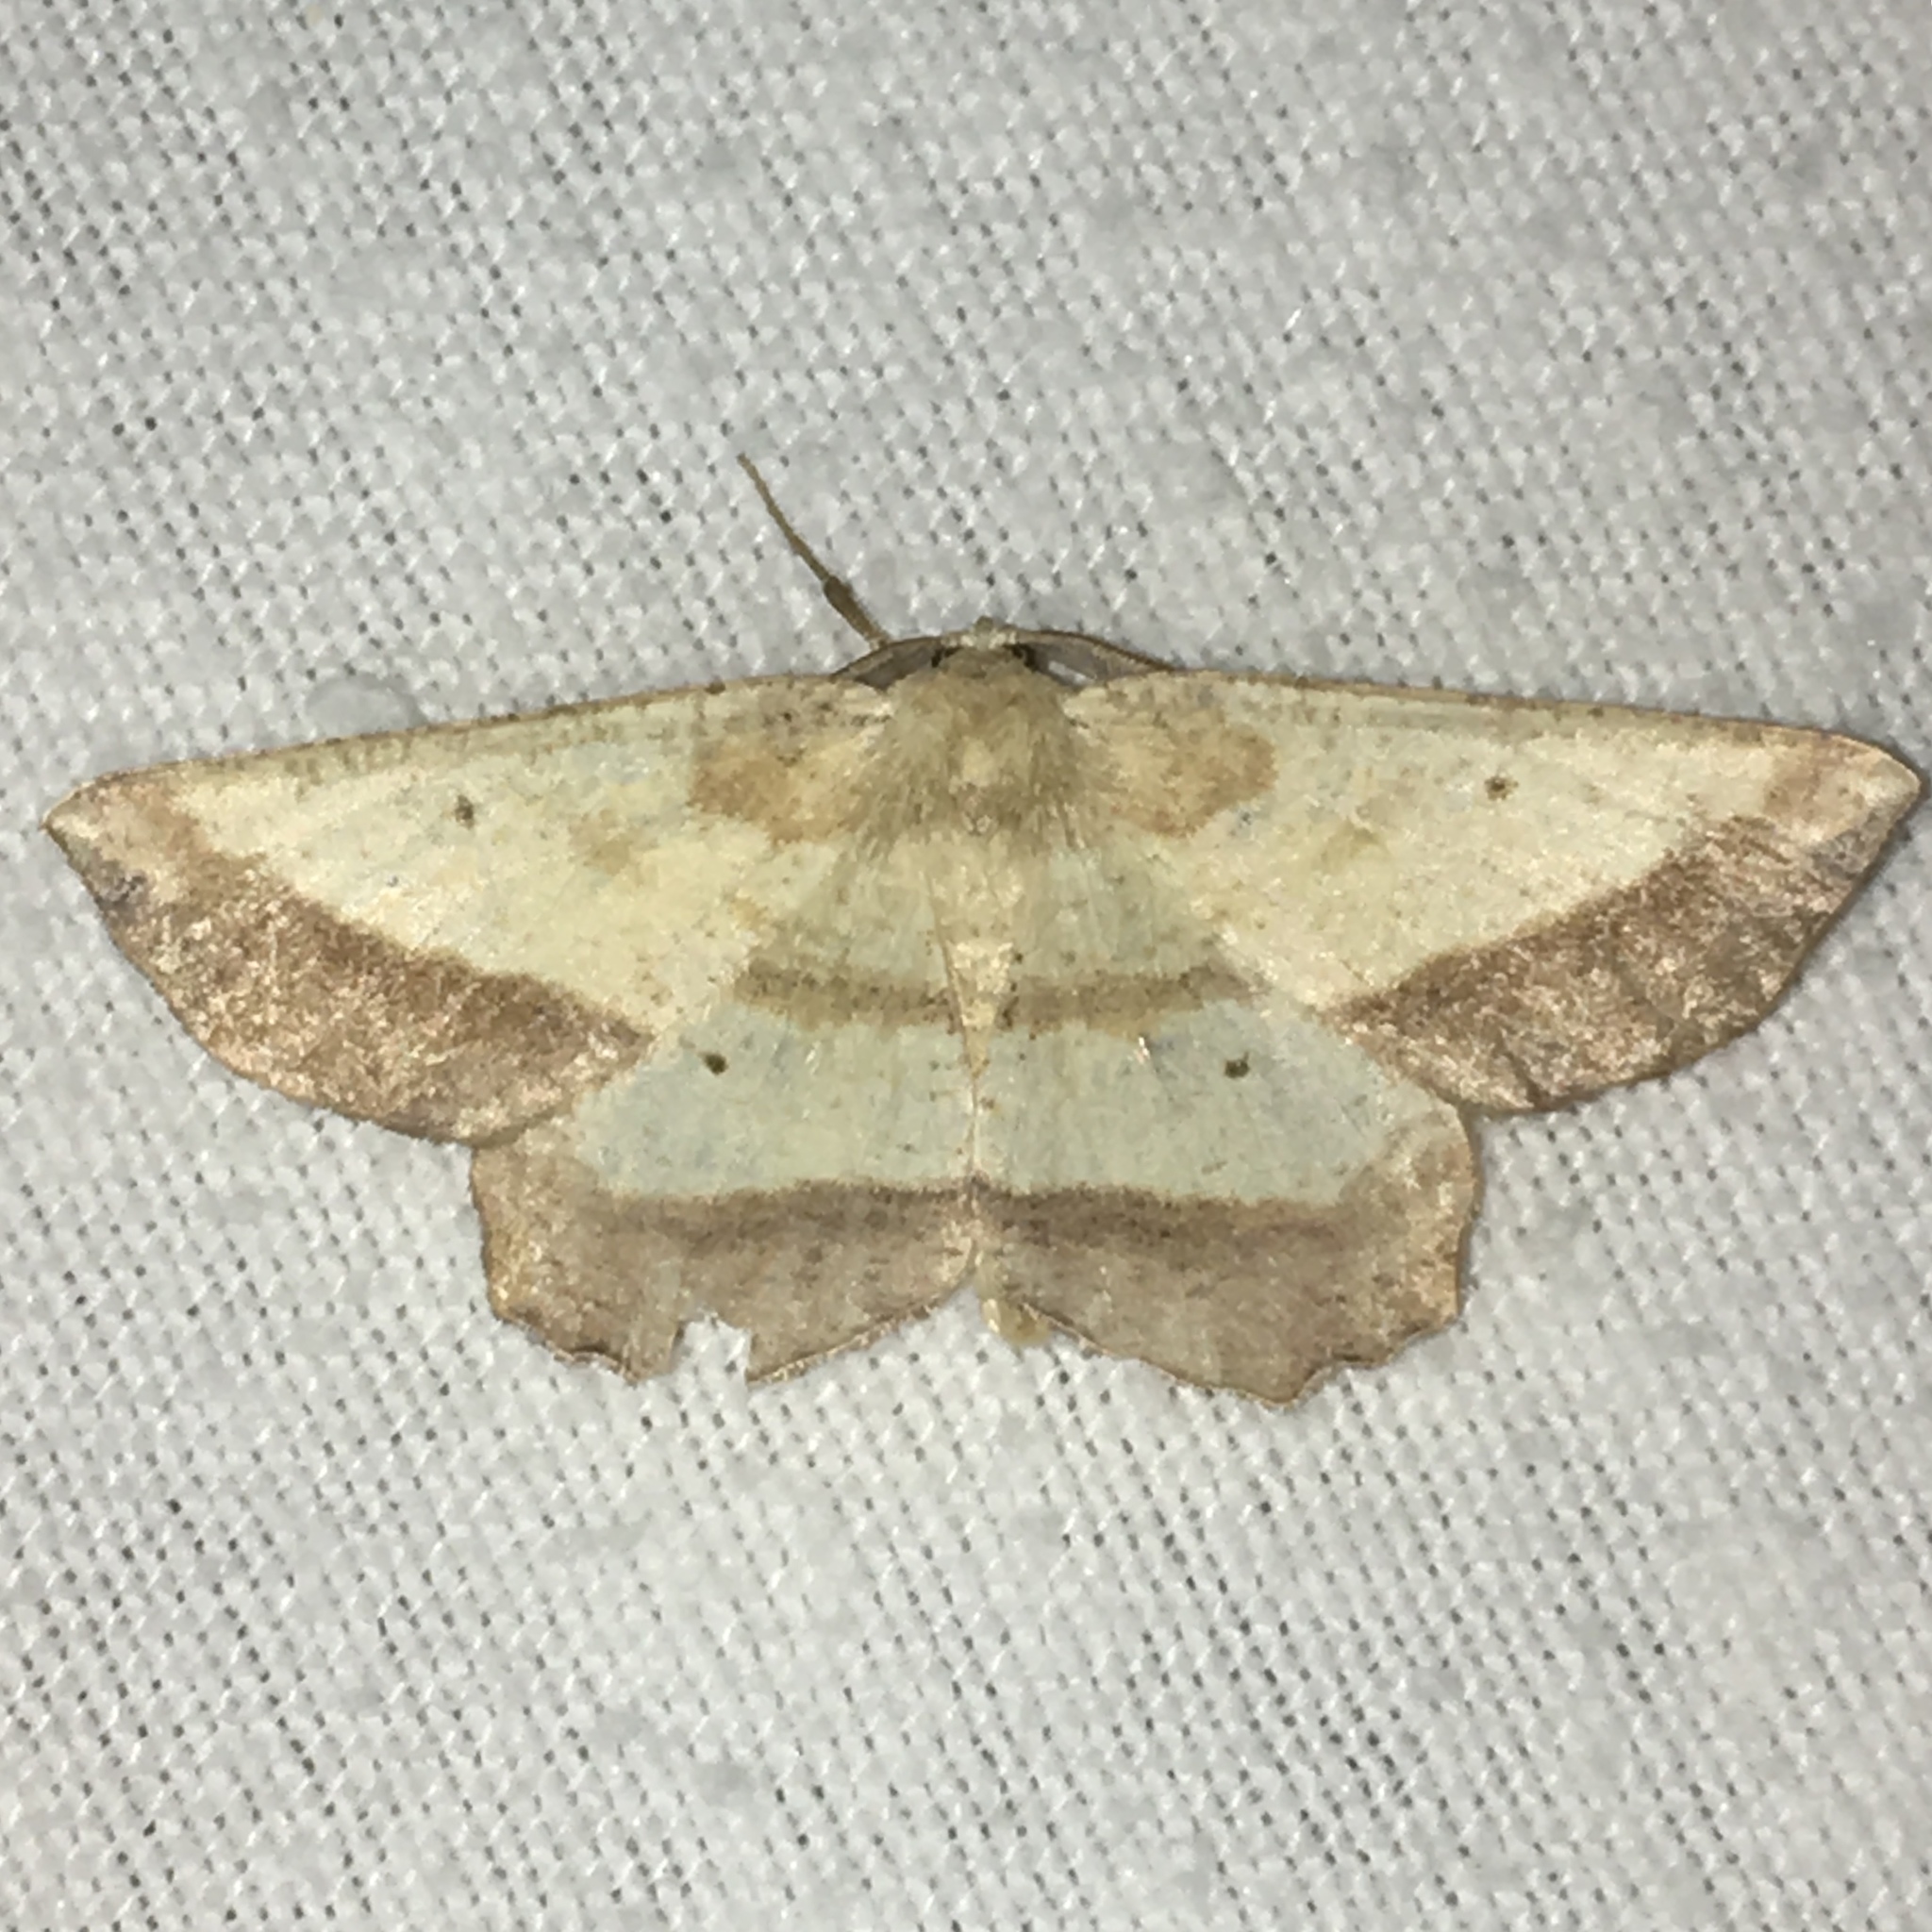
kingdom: Animalia
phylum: Arthropoda
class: Insecta
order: Lepidoptera
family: Geometridae
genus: Euchlaena
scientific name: Euchlaena serrata
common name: Saw wing
